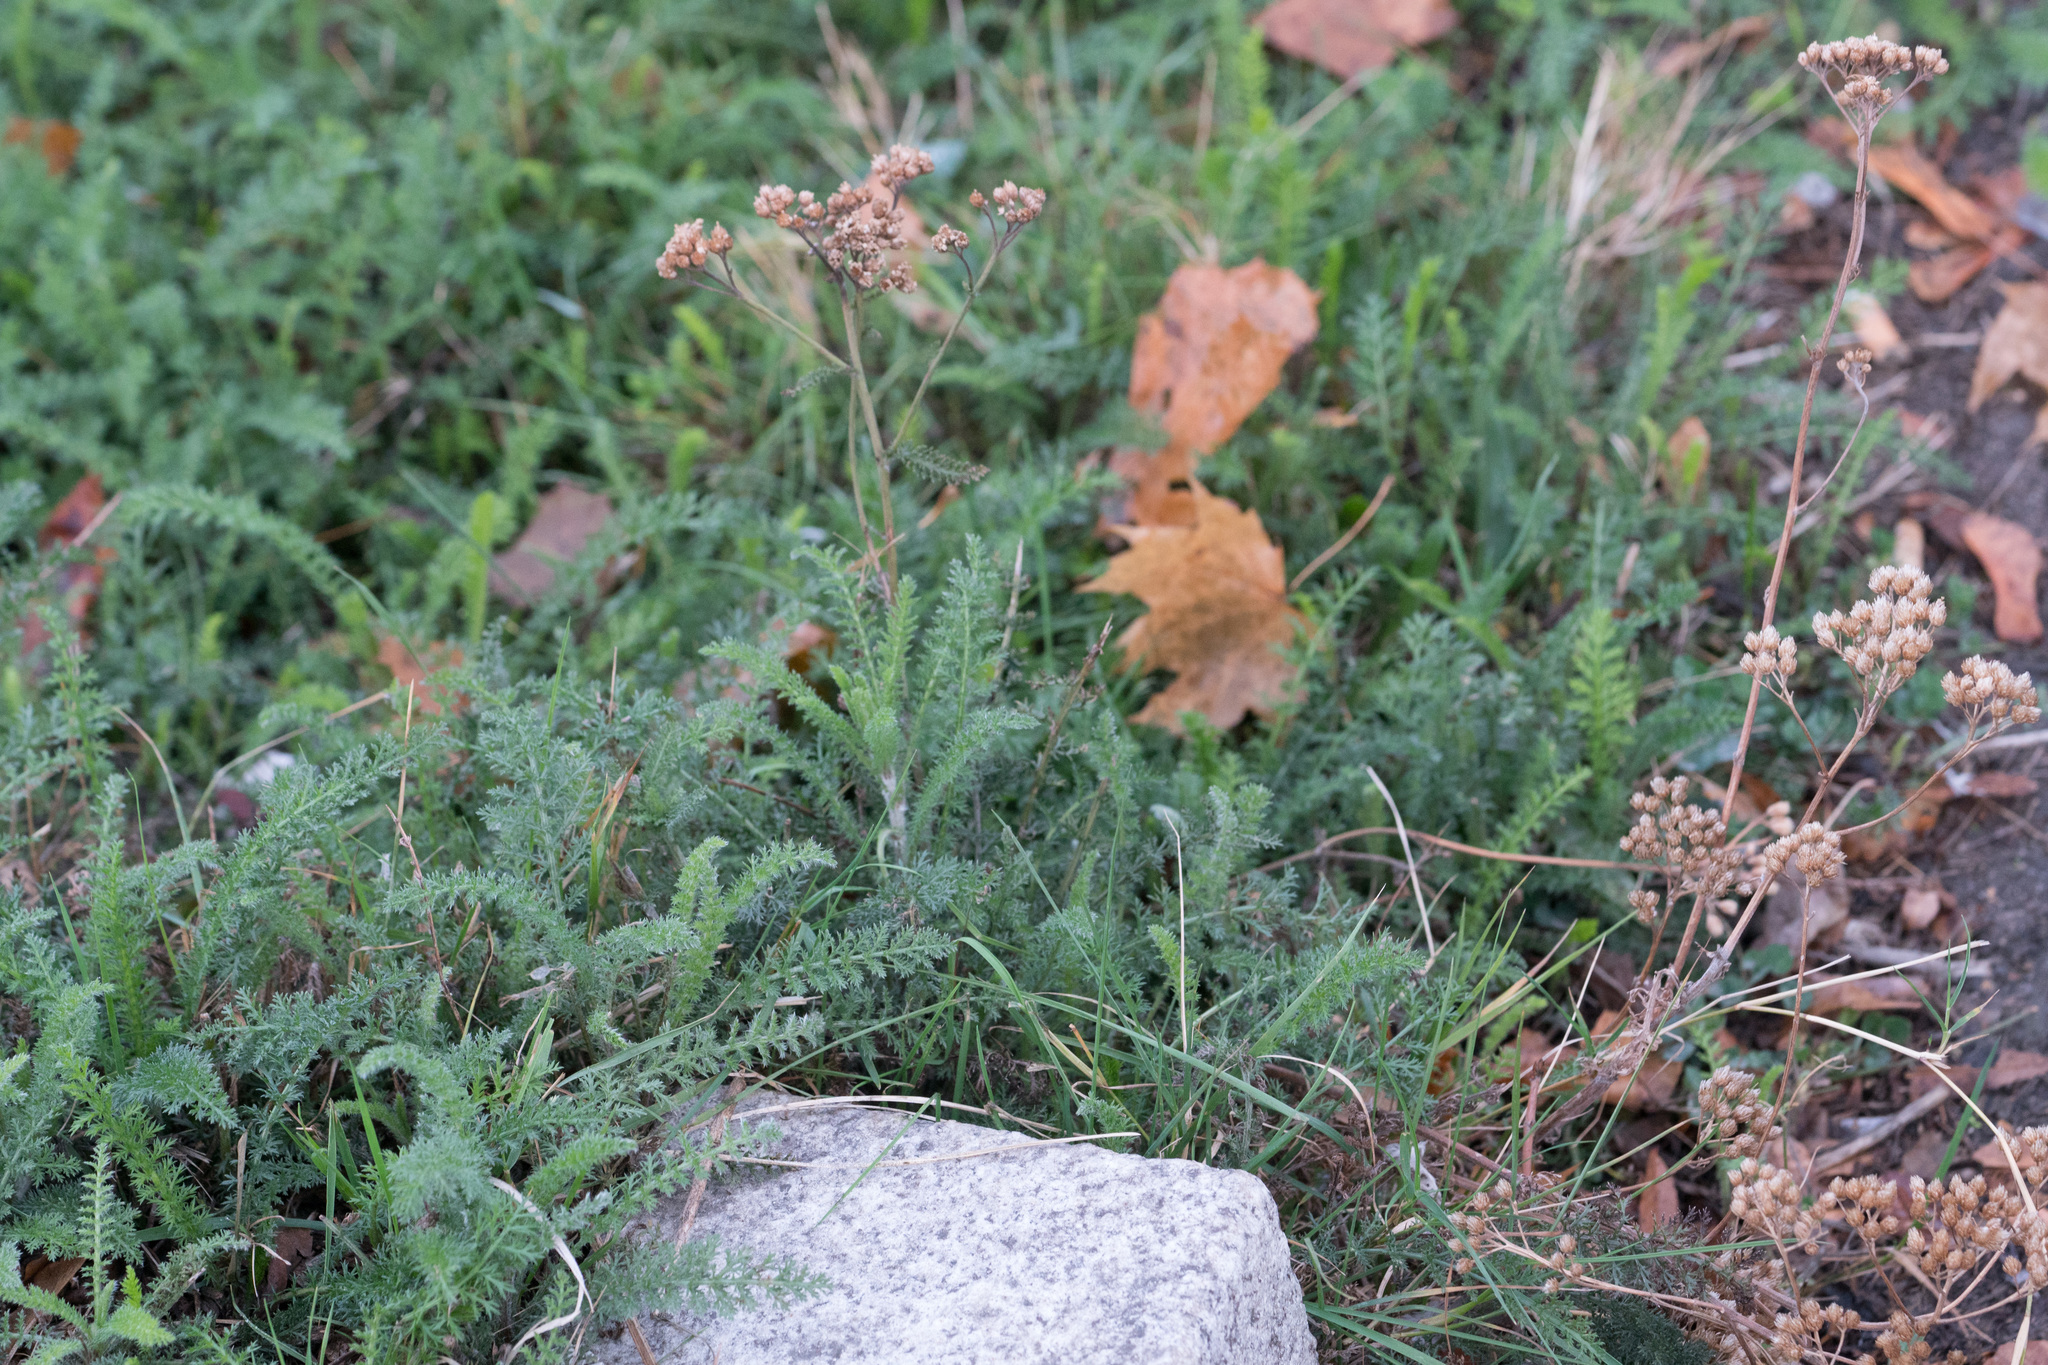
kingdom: Plantae
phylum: Tracheophyta
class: Magnoliopsida
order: Asterales
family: Asteraceae
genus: Achillea
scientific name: Achillea millefolium
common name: Yarrow
